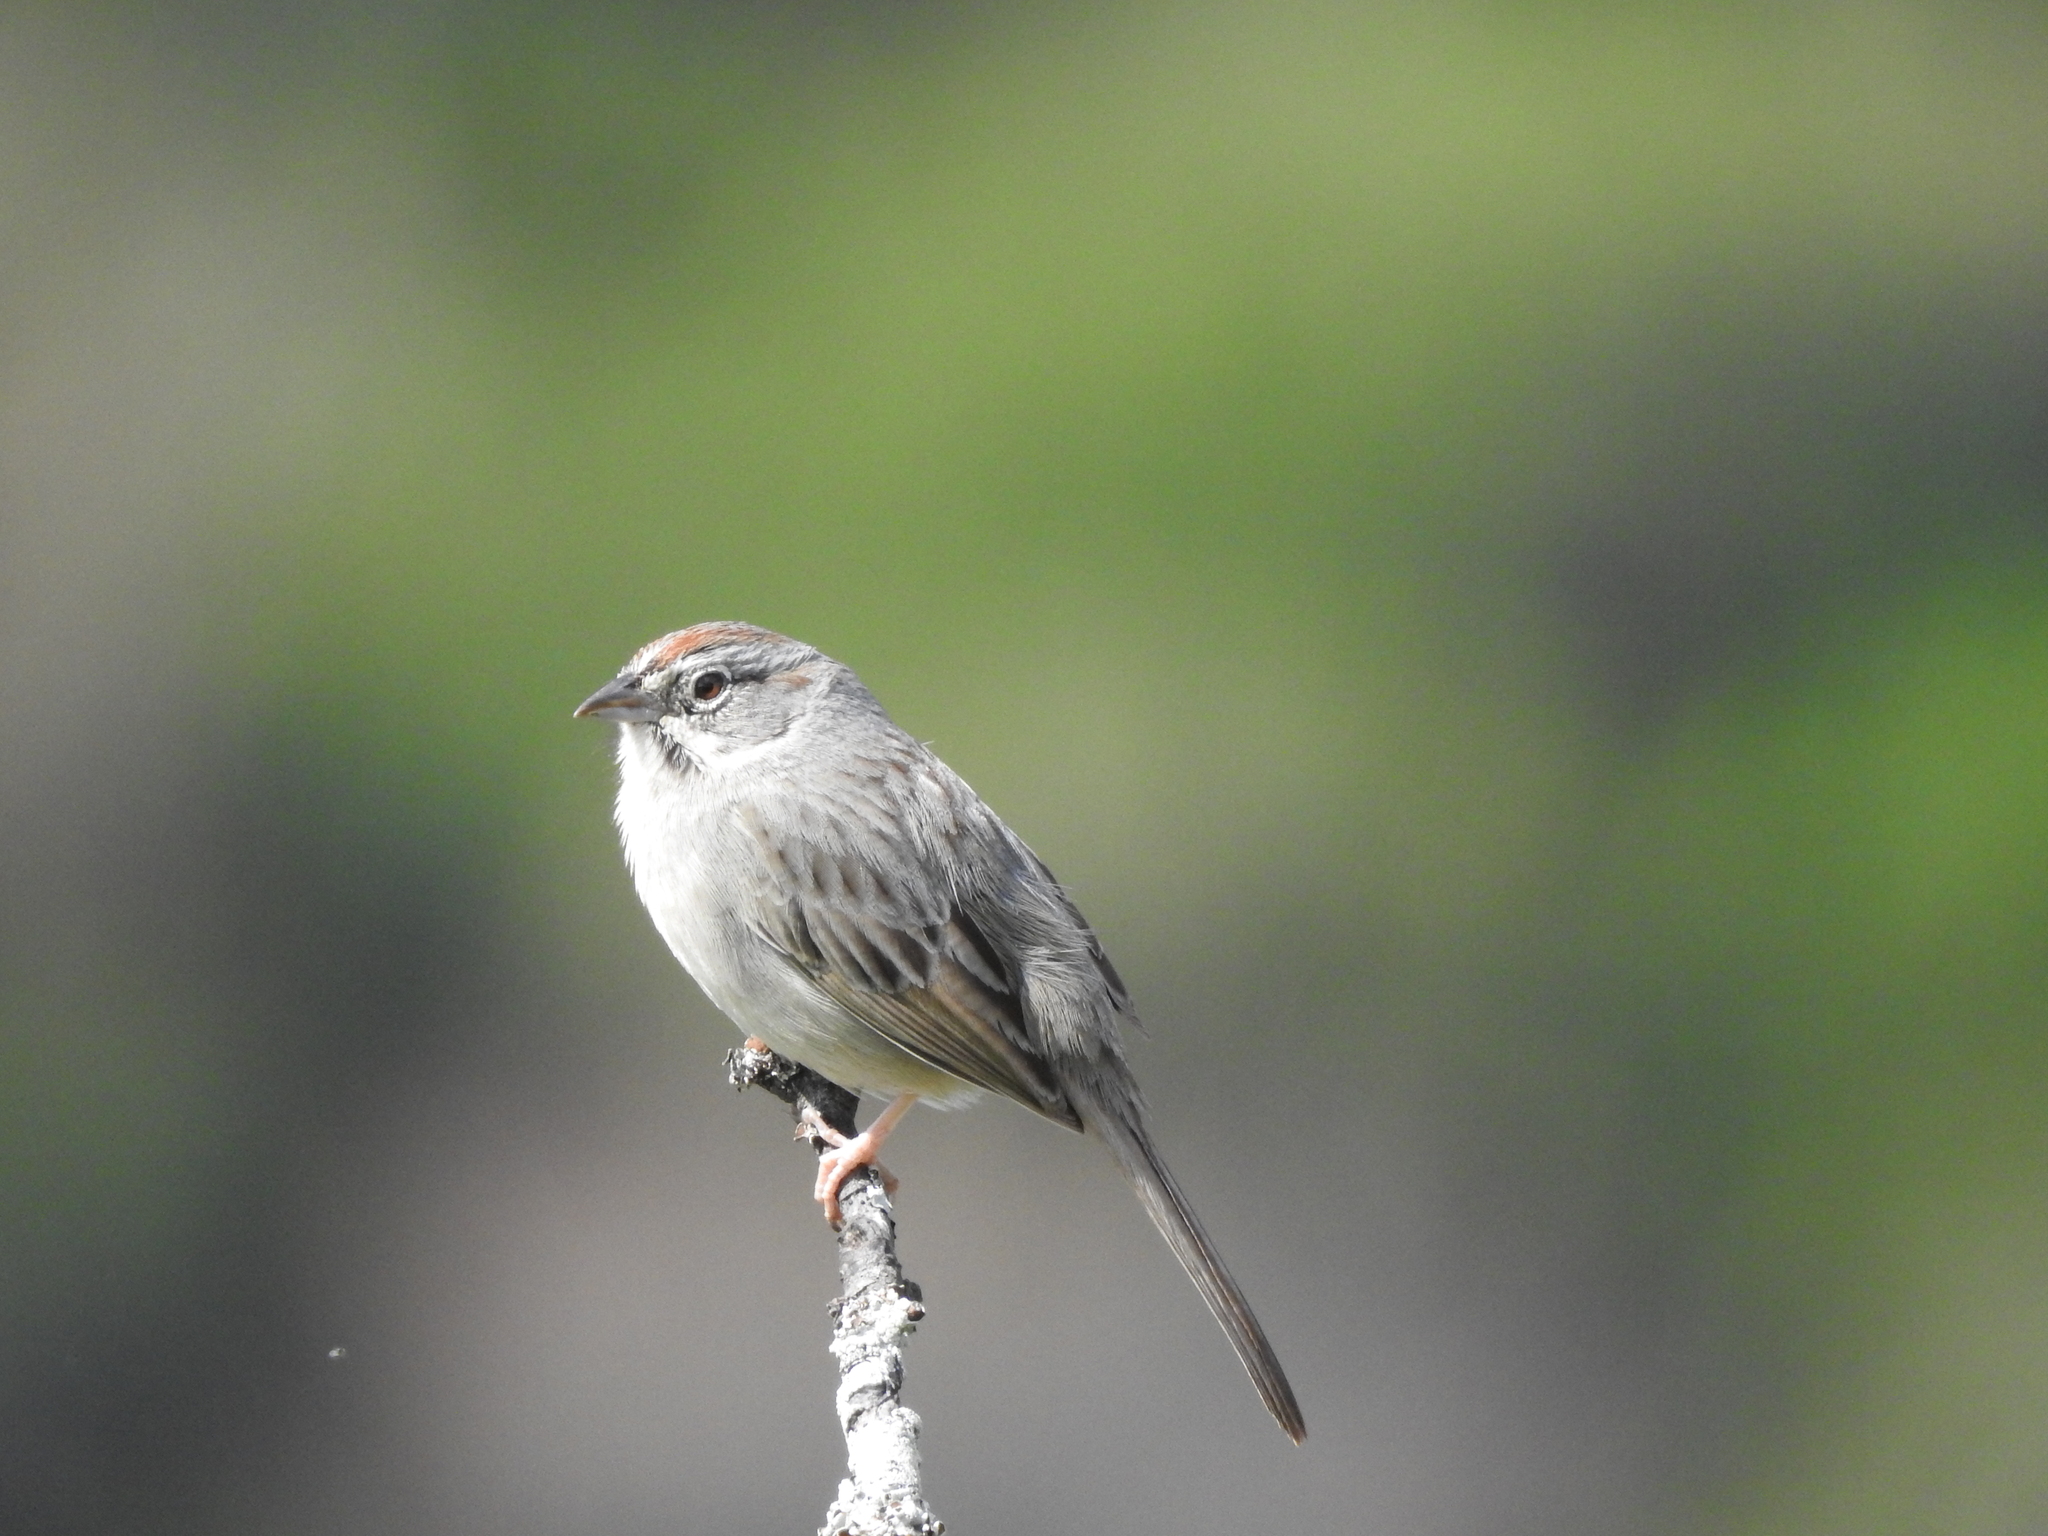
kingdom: Animalia
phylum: Chordata
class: Aves
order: Passeriformes
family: Passerellidae
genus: Aimophila
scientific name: Aimophila ruficeps
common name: Rufous-crowned sparrow
